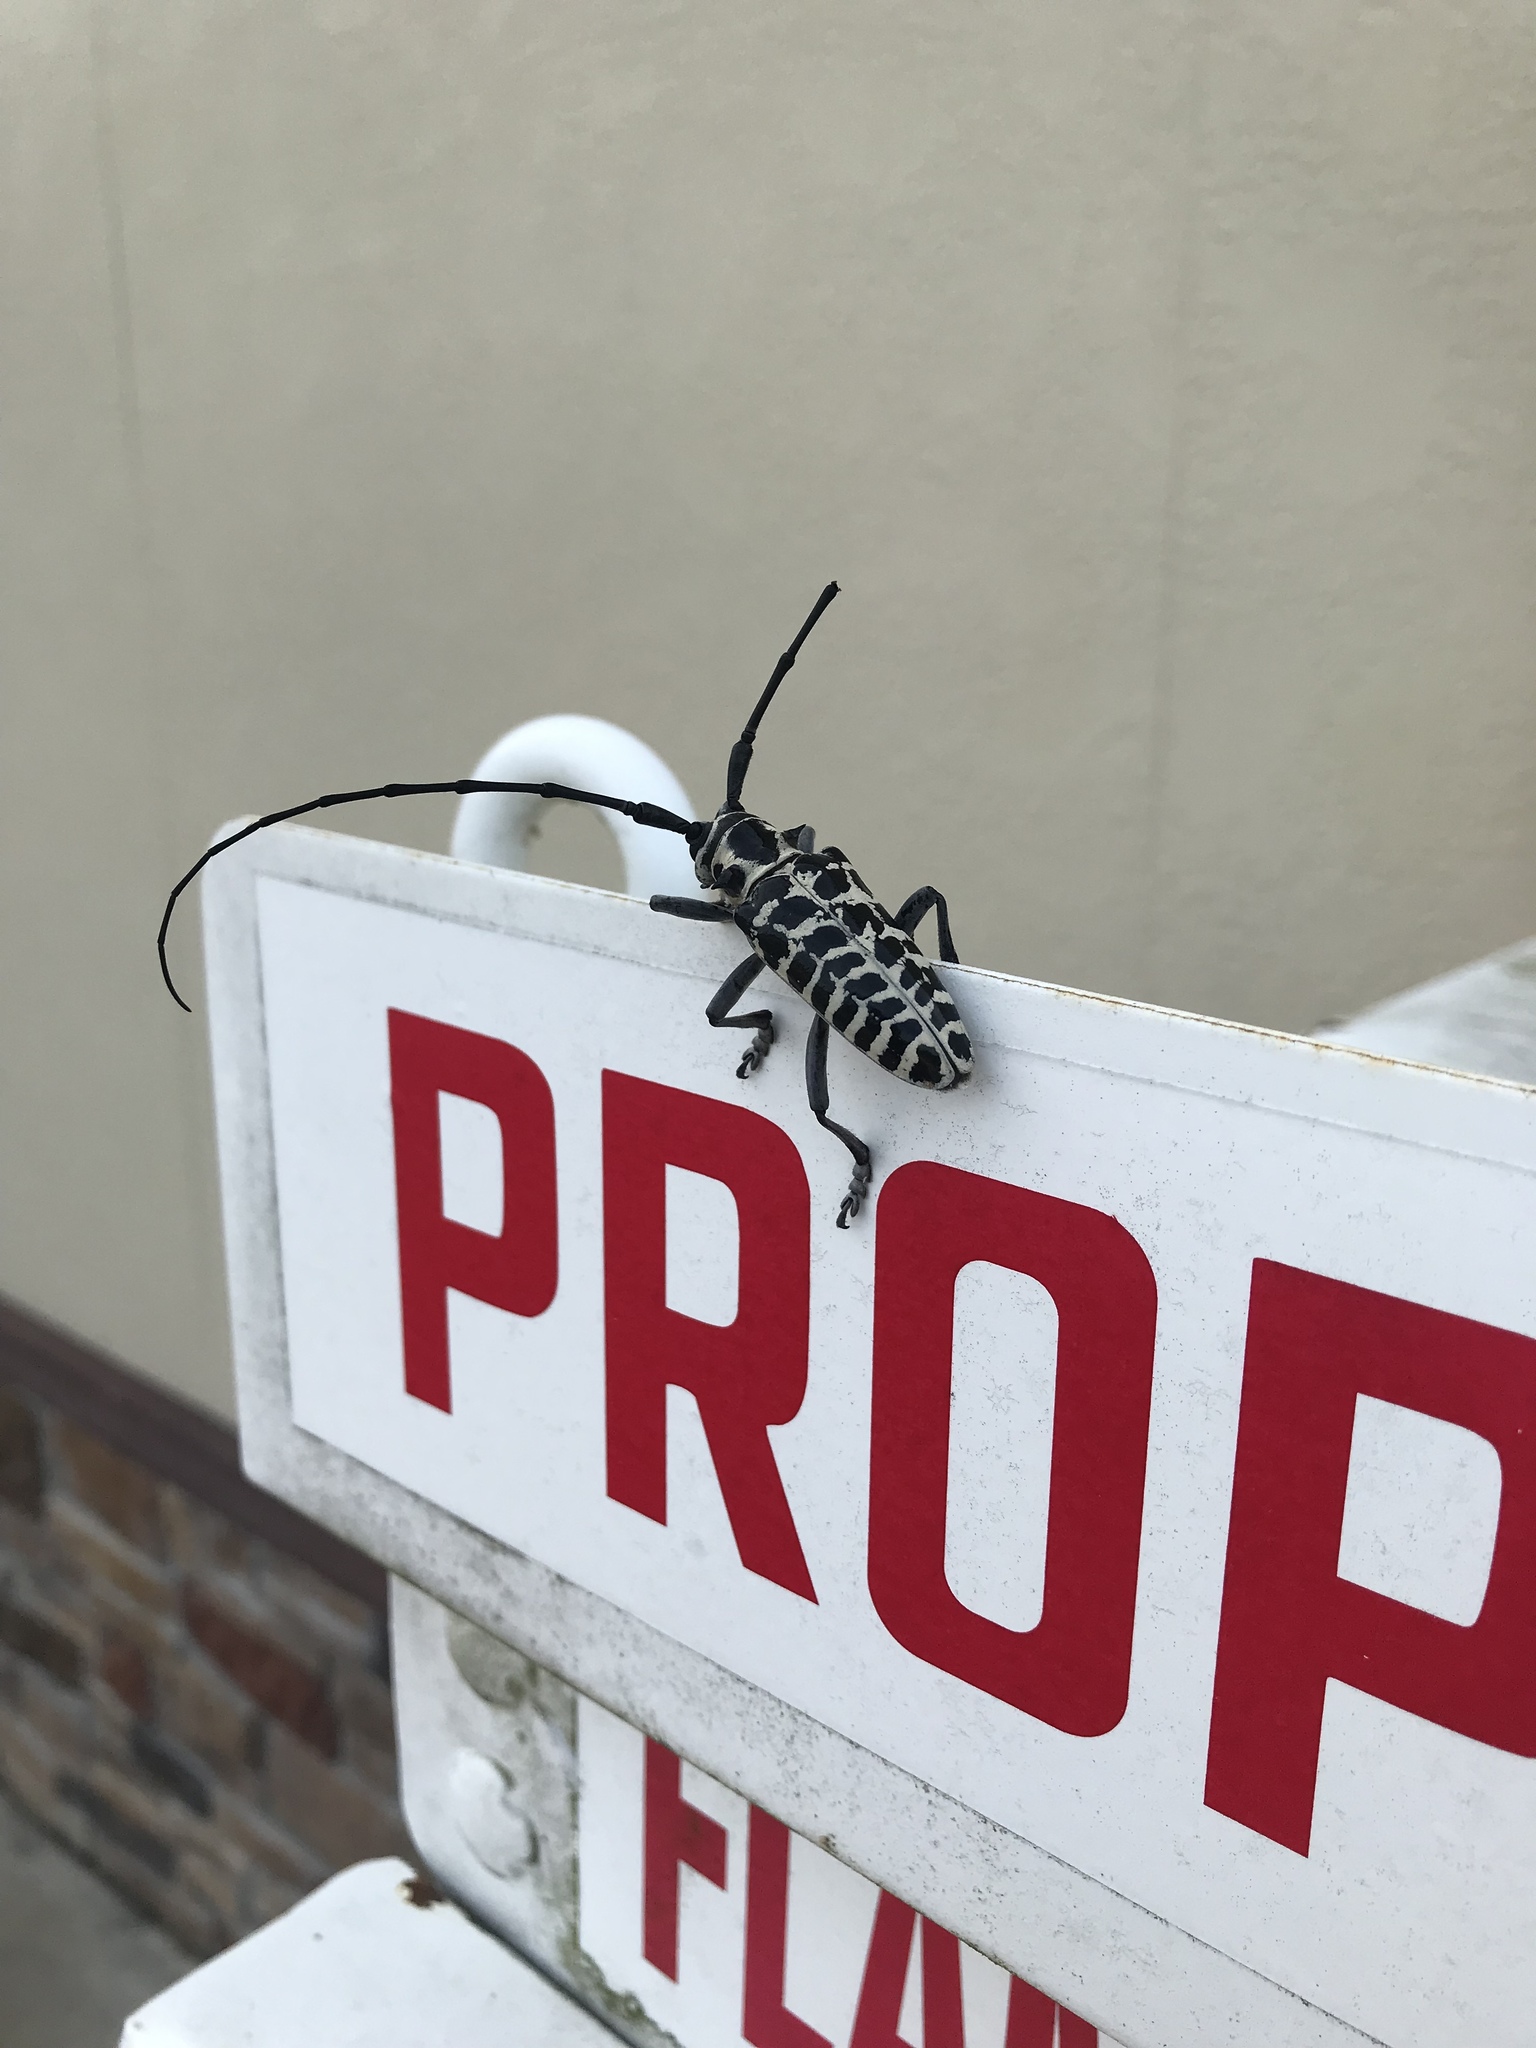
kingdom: Animalia
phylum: Arthropoda
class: Insecta
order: Coleoptera
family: Cerambycidae
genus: Plectrodera
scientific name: Plectrodera scalator
